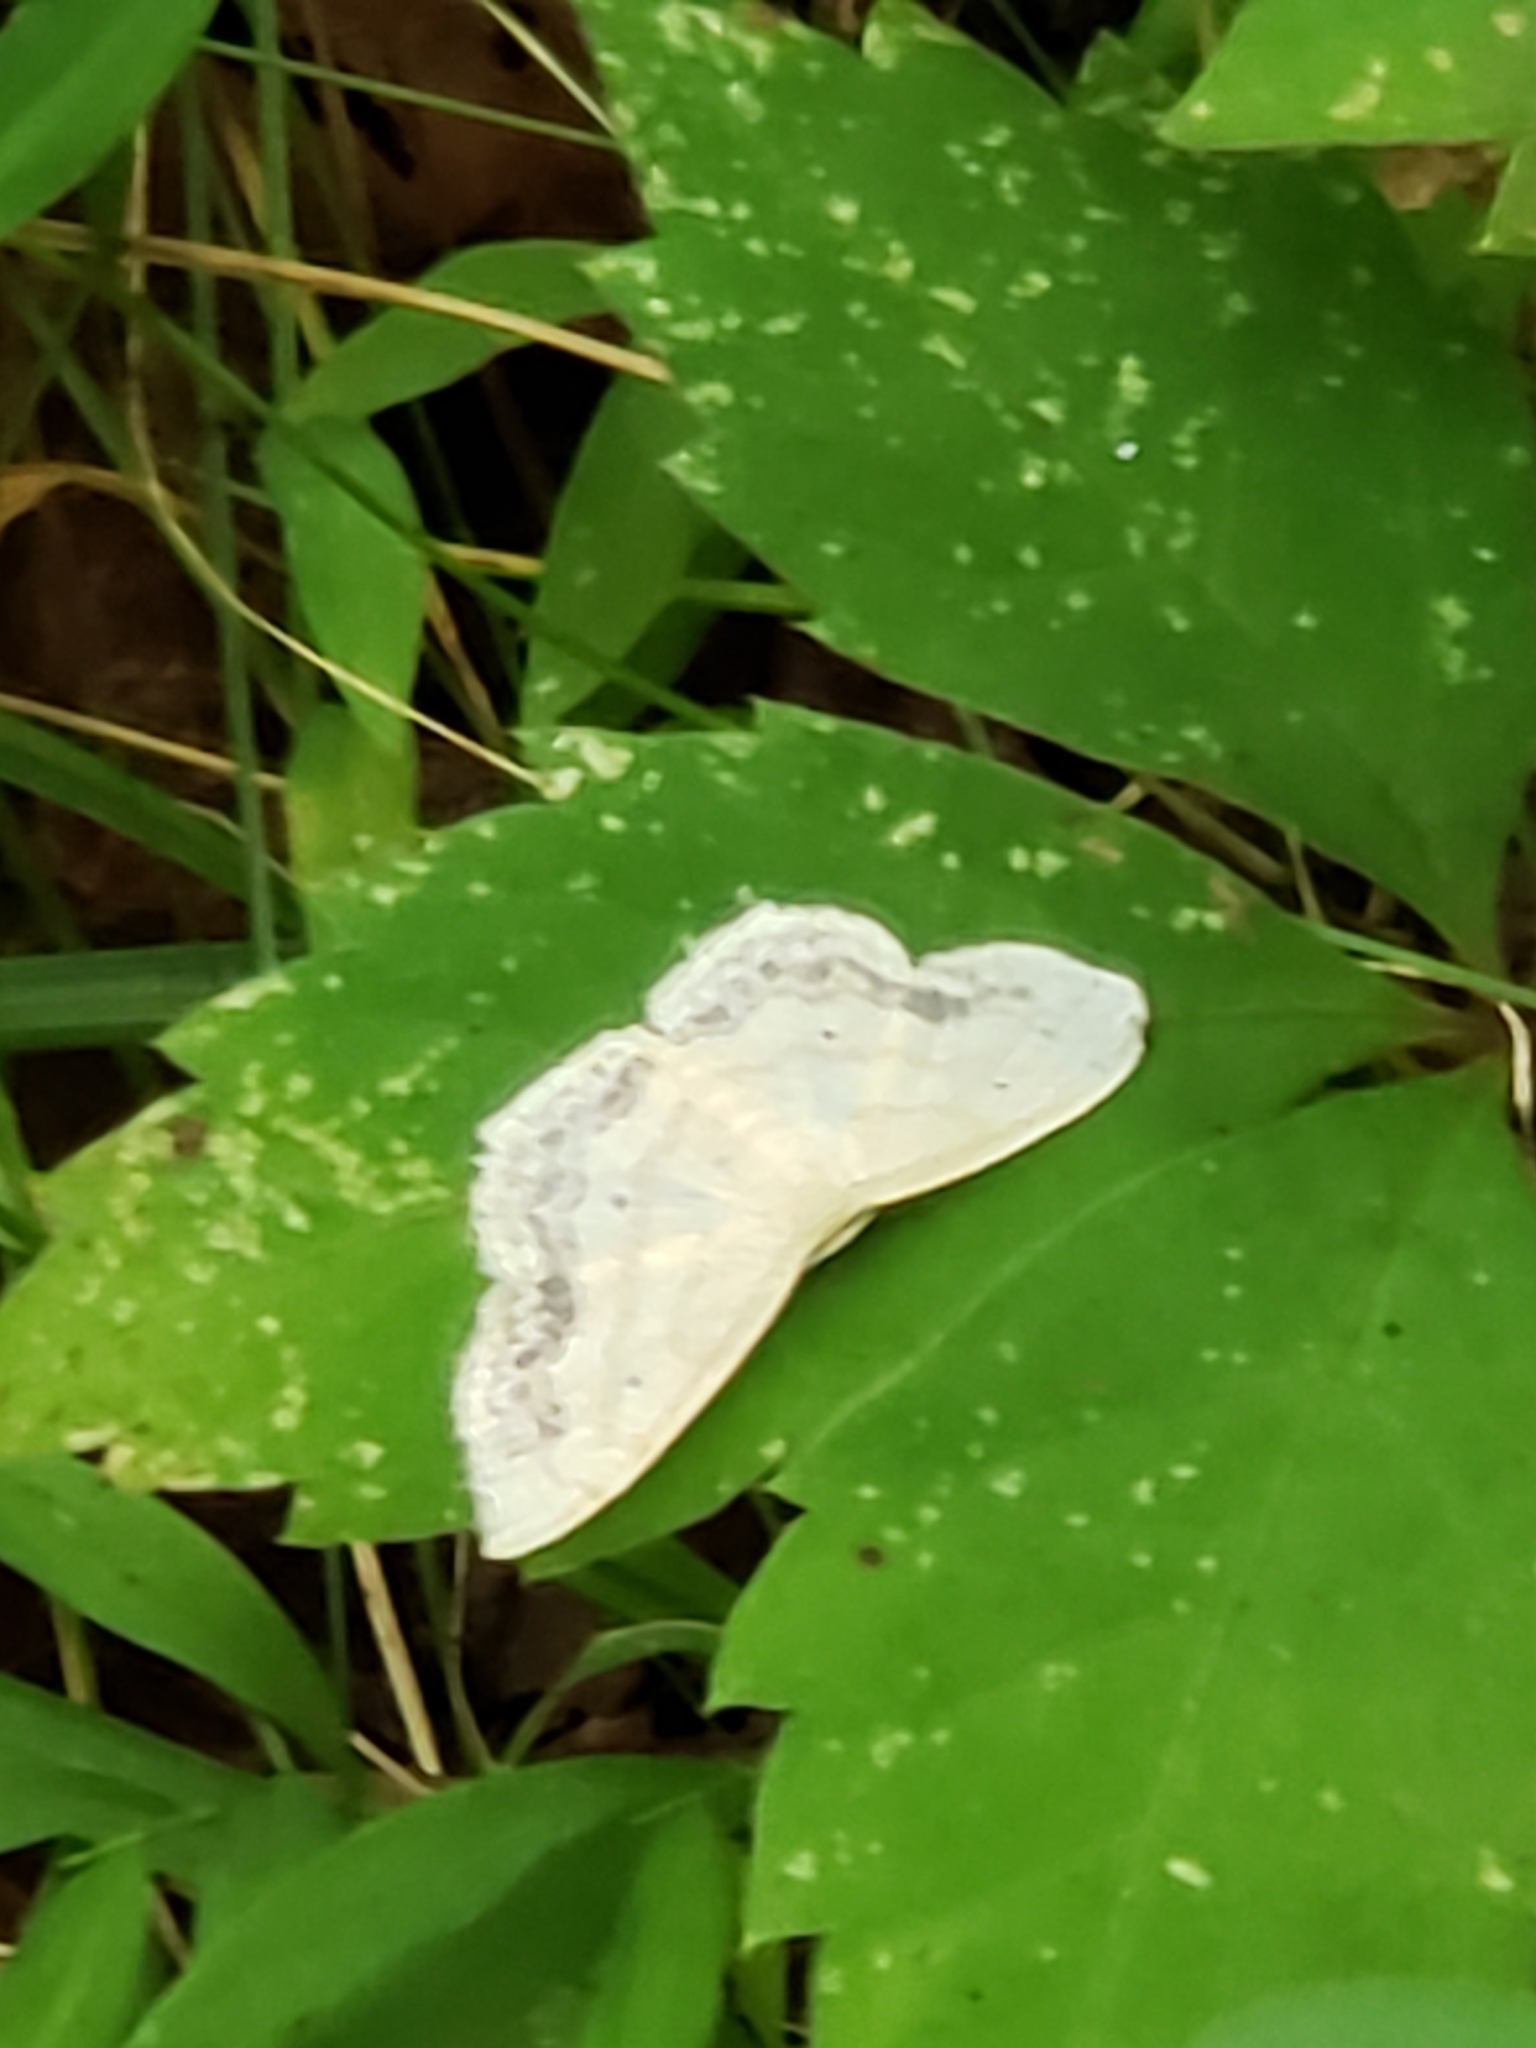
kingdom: Animalia
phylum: Arthropoda
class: Insecta
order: Lepidoptera
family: Geometridae
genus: Scopula
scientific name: Scopula limboundata
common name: Large lace border
